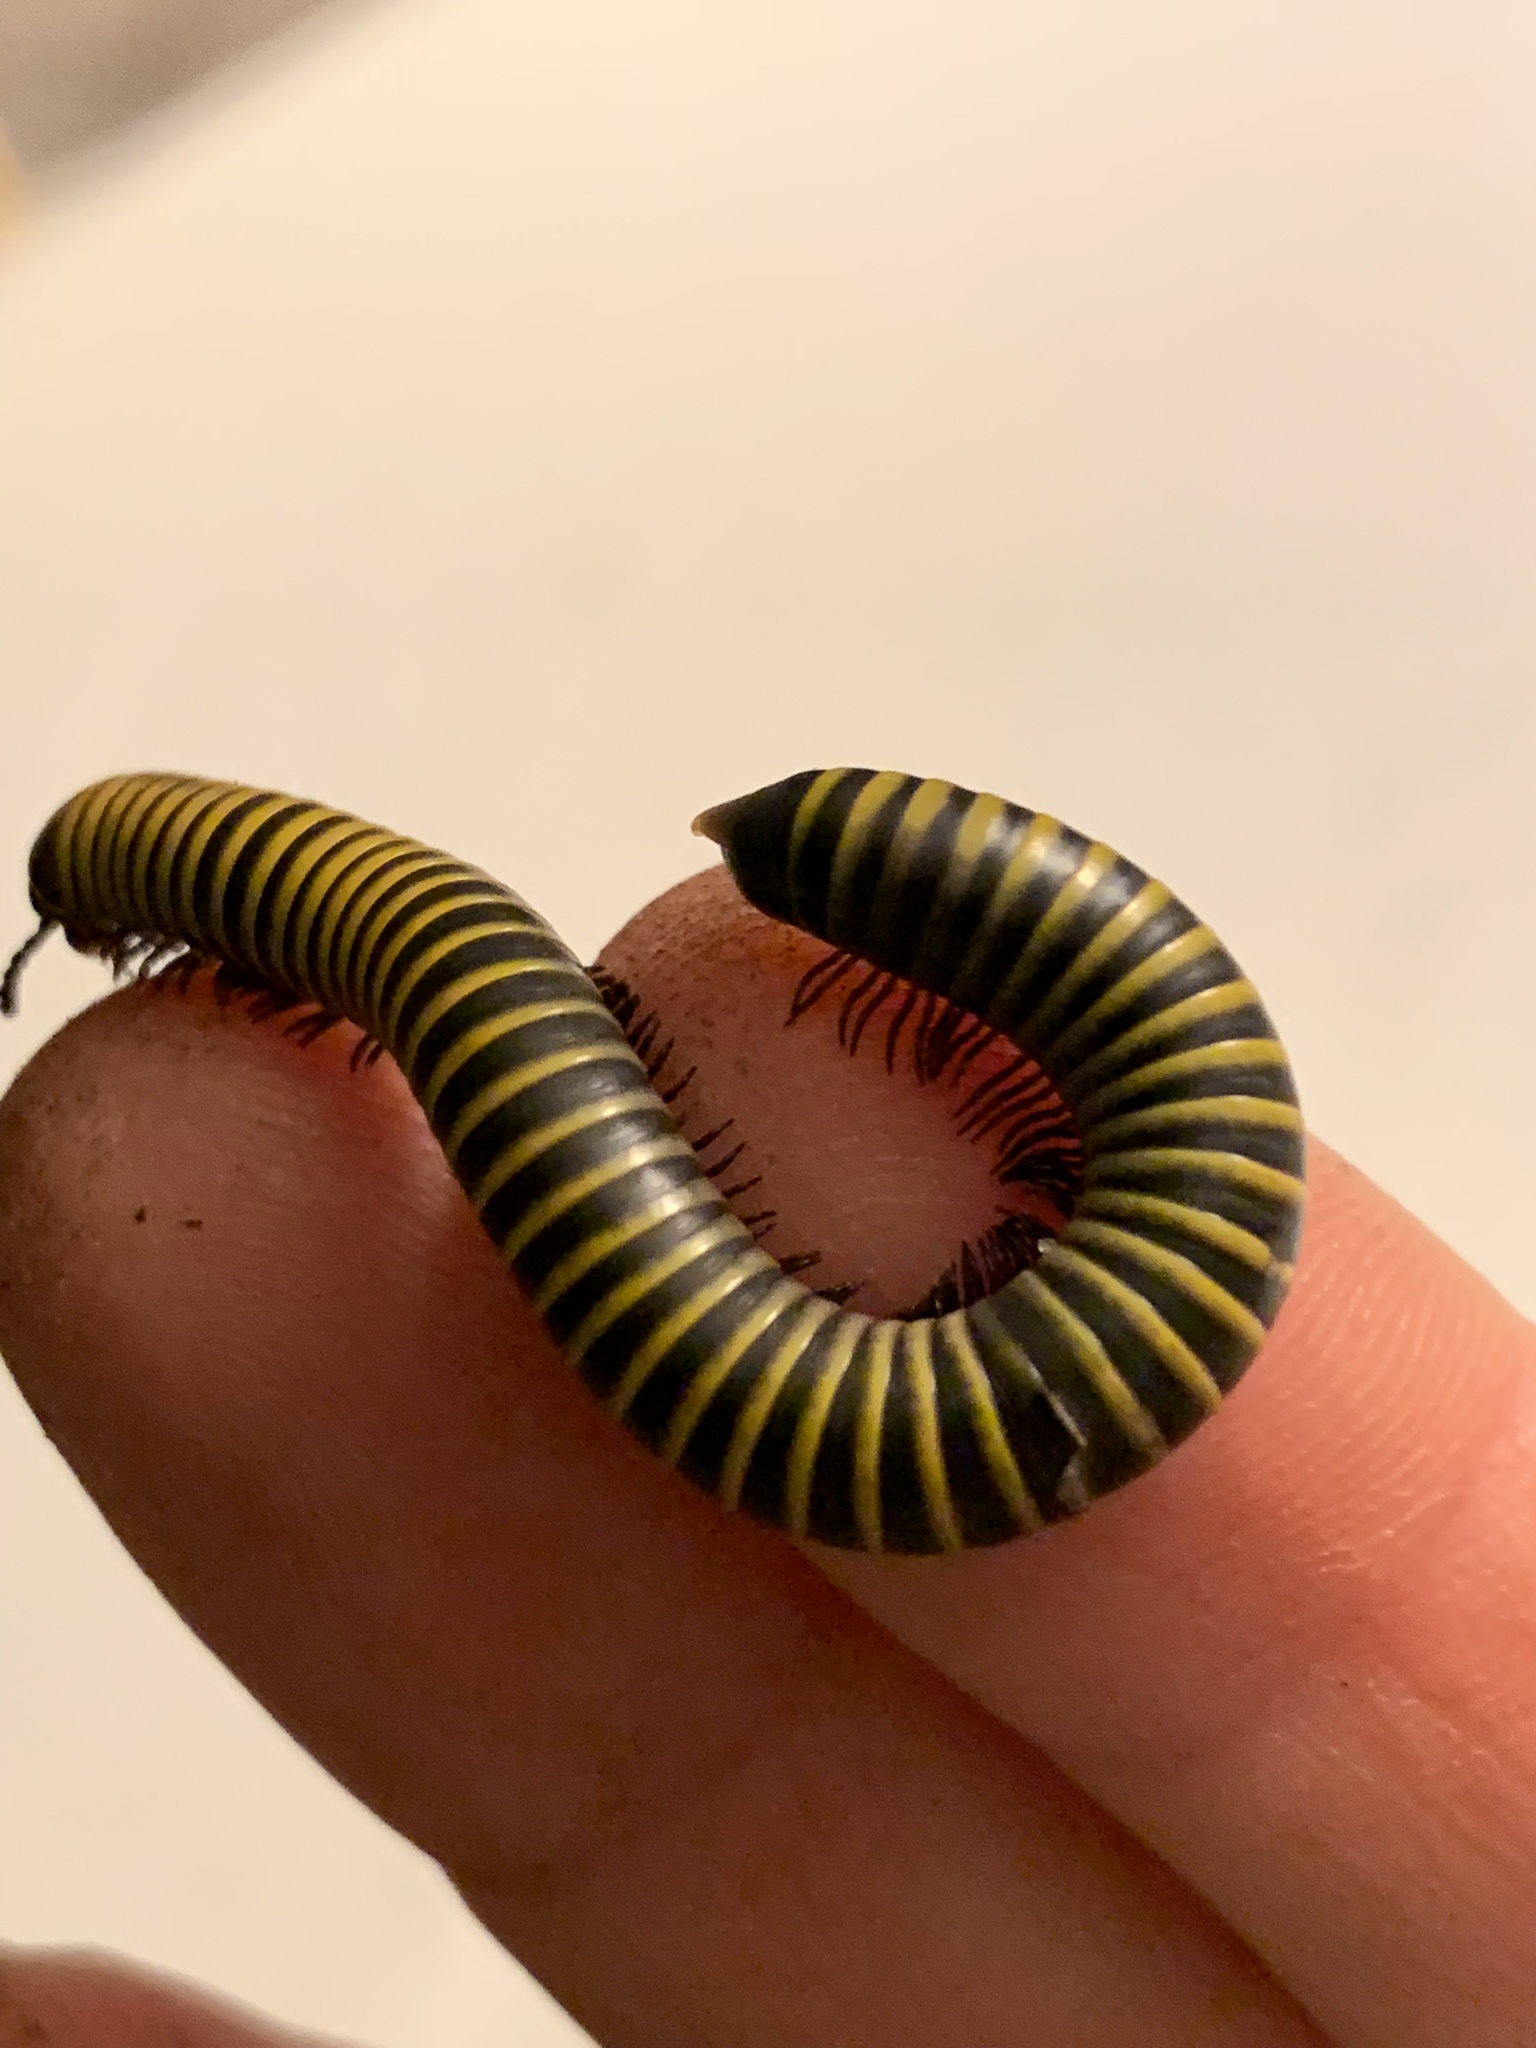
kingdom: Animalia
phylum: Arthropoda
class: Diplopoda
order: Spirobolida
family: Rhinocricidae
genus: Anadenobolus
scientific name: Anadenobolus monilicornis
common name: Caribbean millipede
